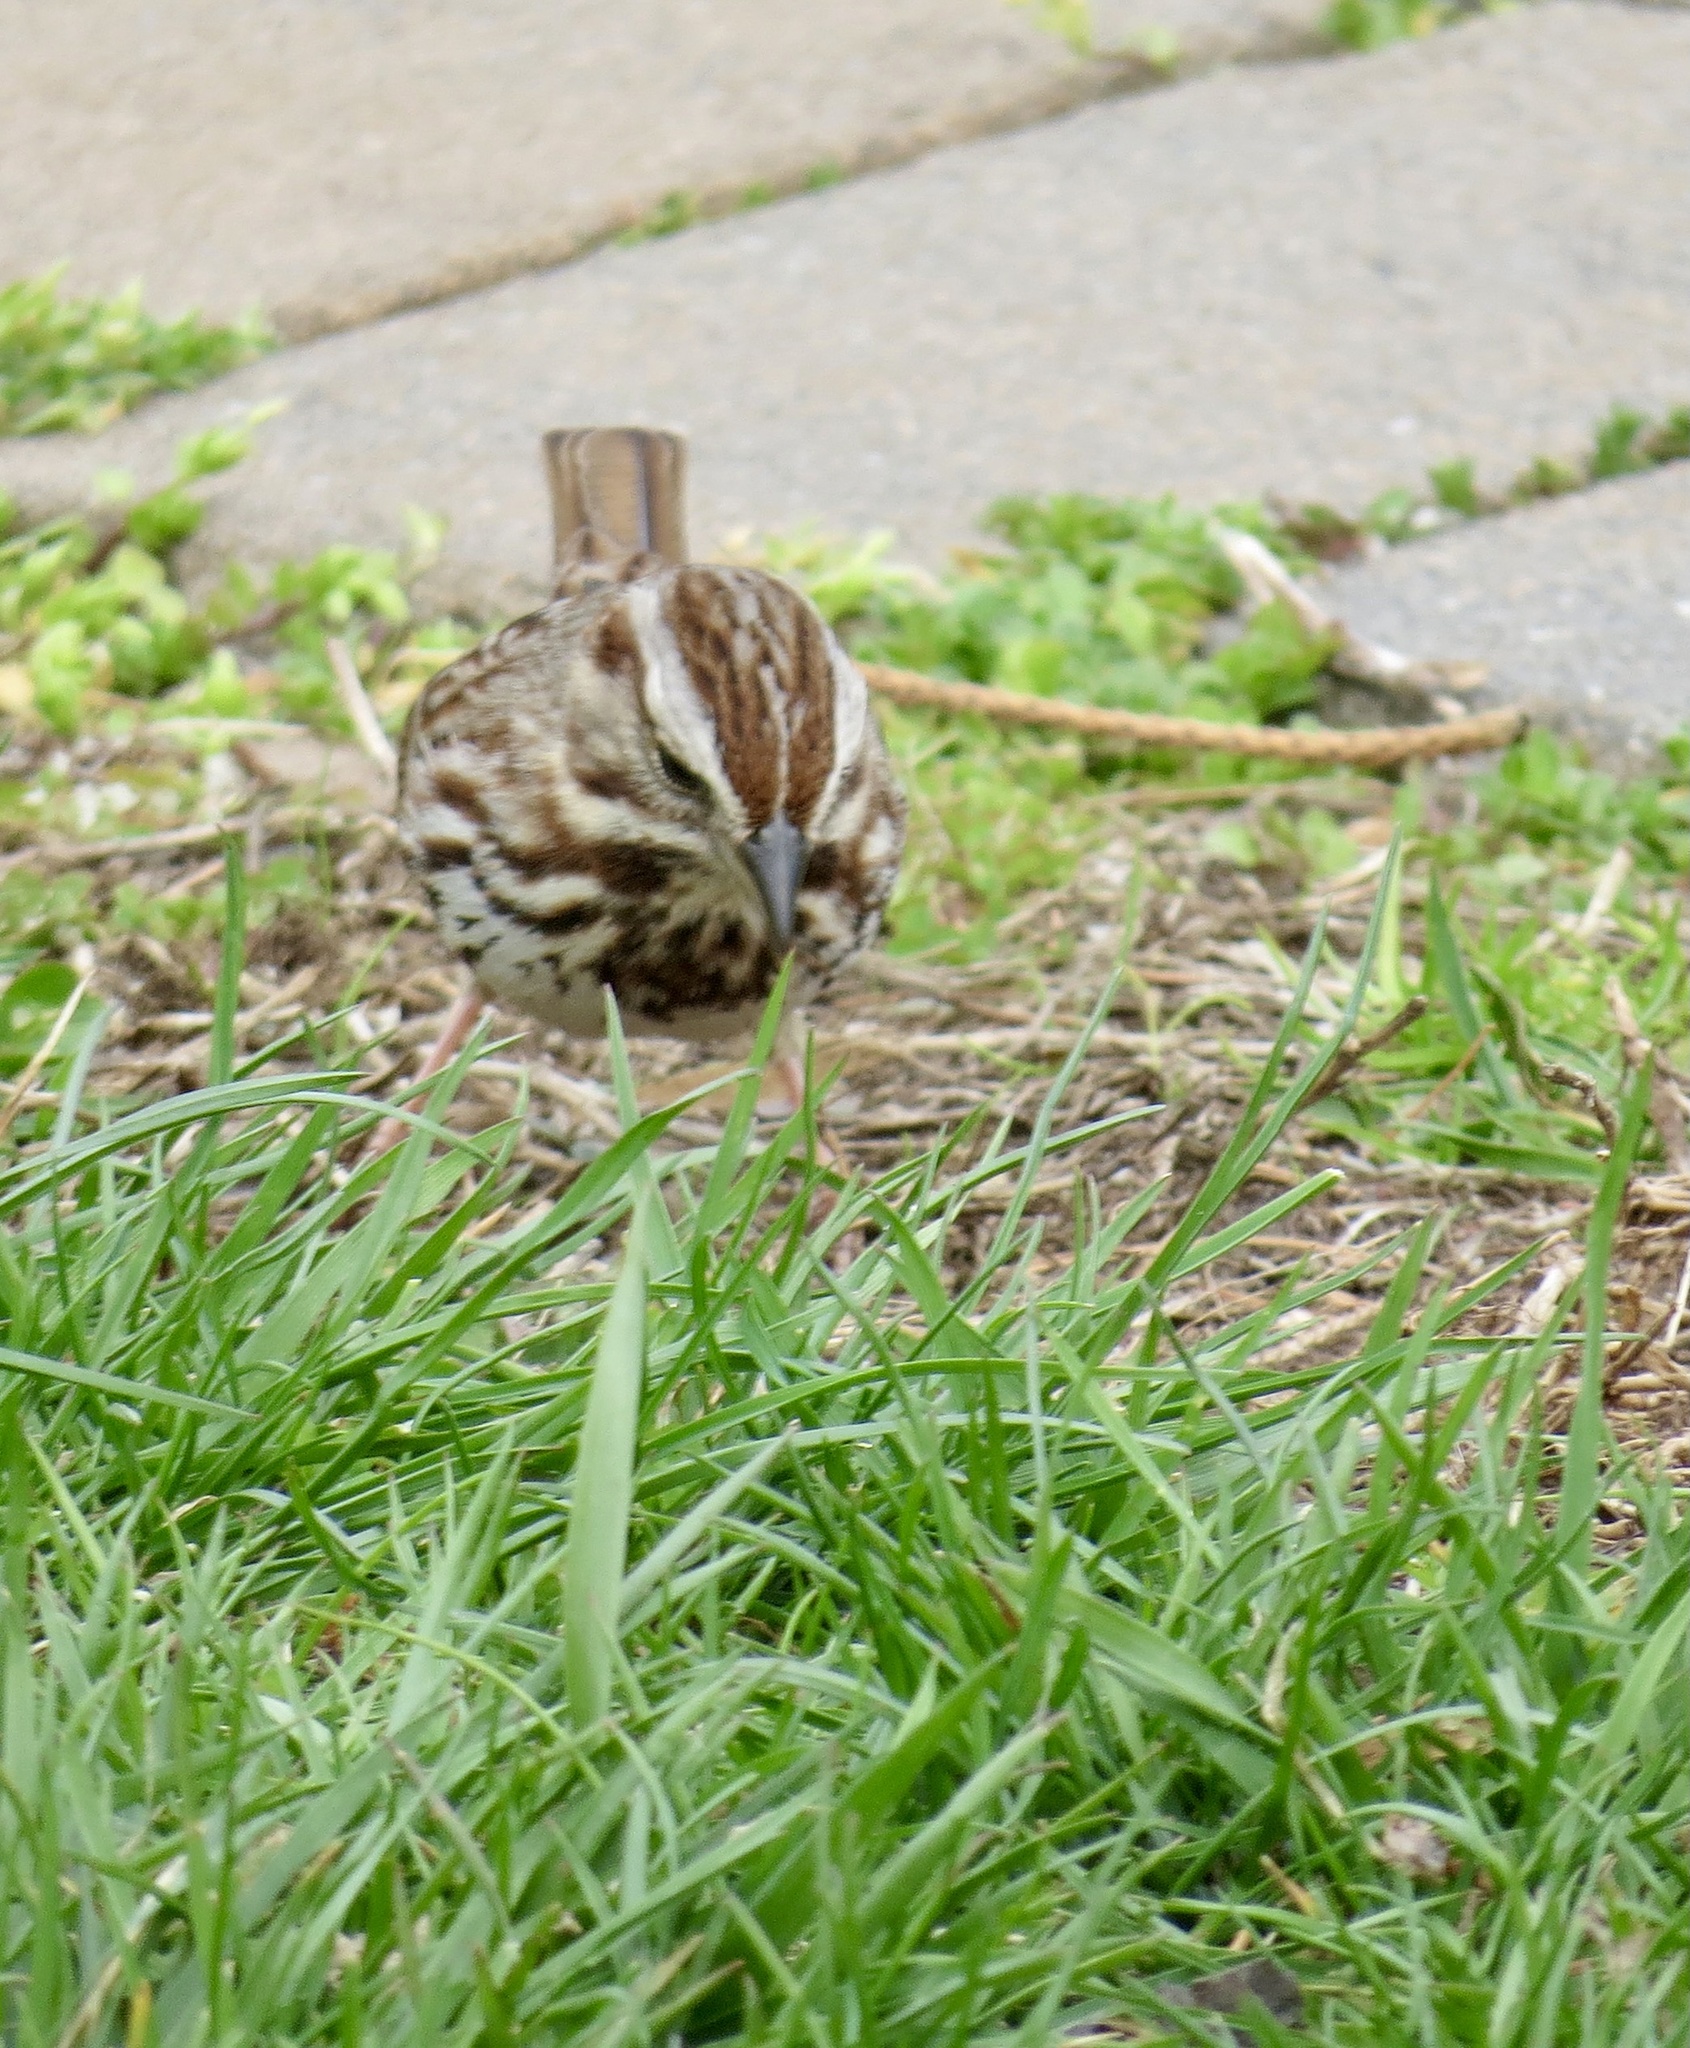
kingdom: Animalia
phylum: Chordata
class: Aves
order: Passeriformes
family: Passerellidae
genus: Melospiza
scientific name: Melospiza melodia
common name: Song sparrow
